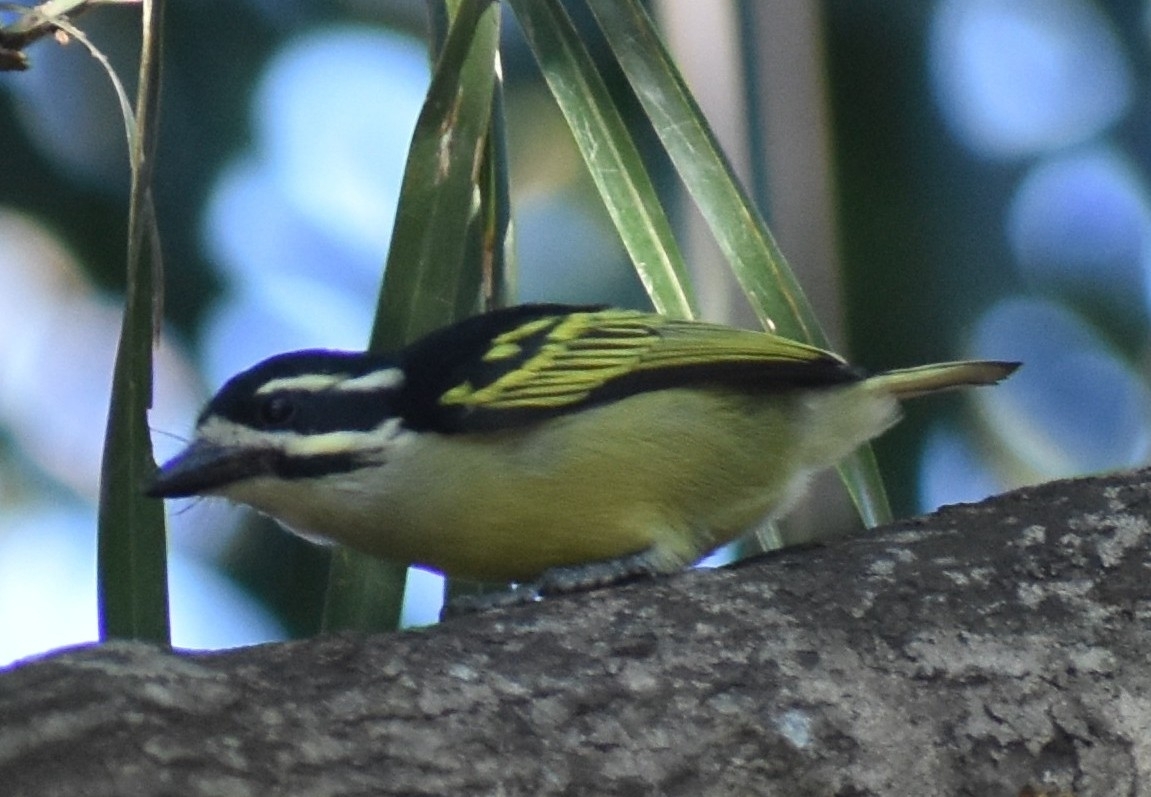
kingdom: Animalia
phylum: Chordata
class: Aves
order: Piciformes
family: Lybiidae
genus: Pogoniulus
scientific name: Pogoniulus bilineatus
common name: Yellow-rumped tinkerbird
